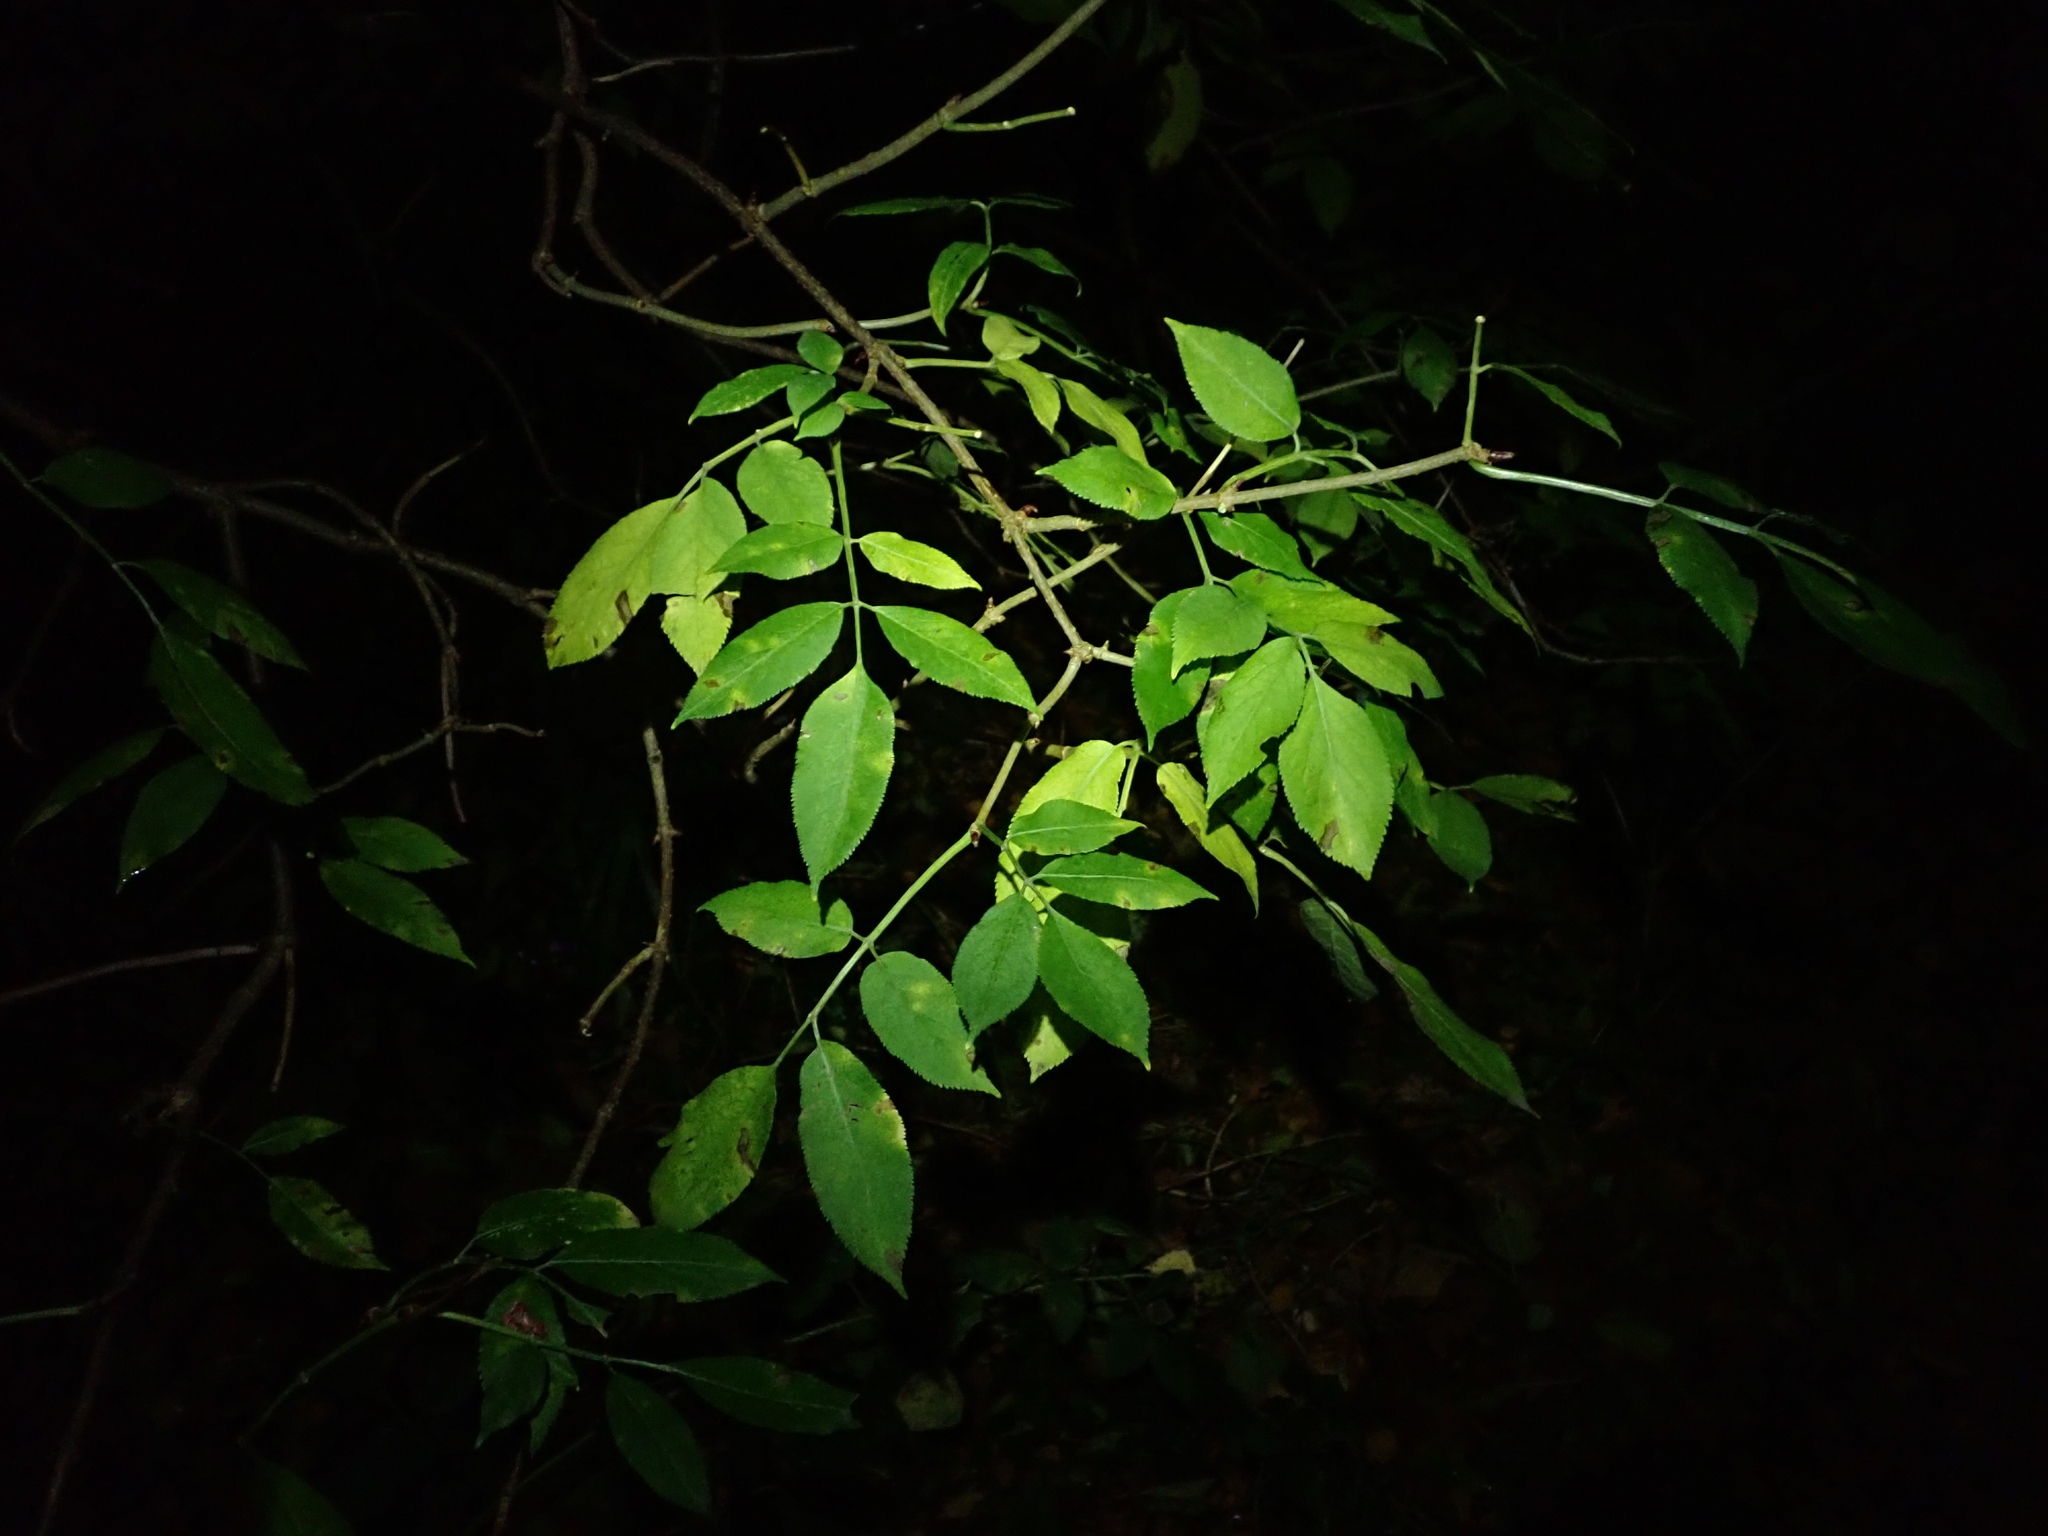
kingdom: Plantae
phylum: Tracheophyta
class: Magnoliopsida
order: Dipsacales
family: Viburnaceae
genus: Sambucus
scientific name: Sambucus nigra
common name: Elder
